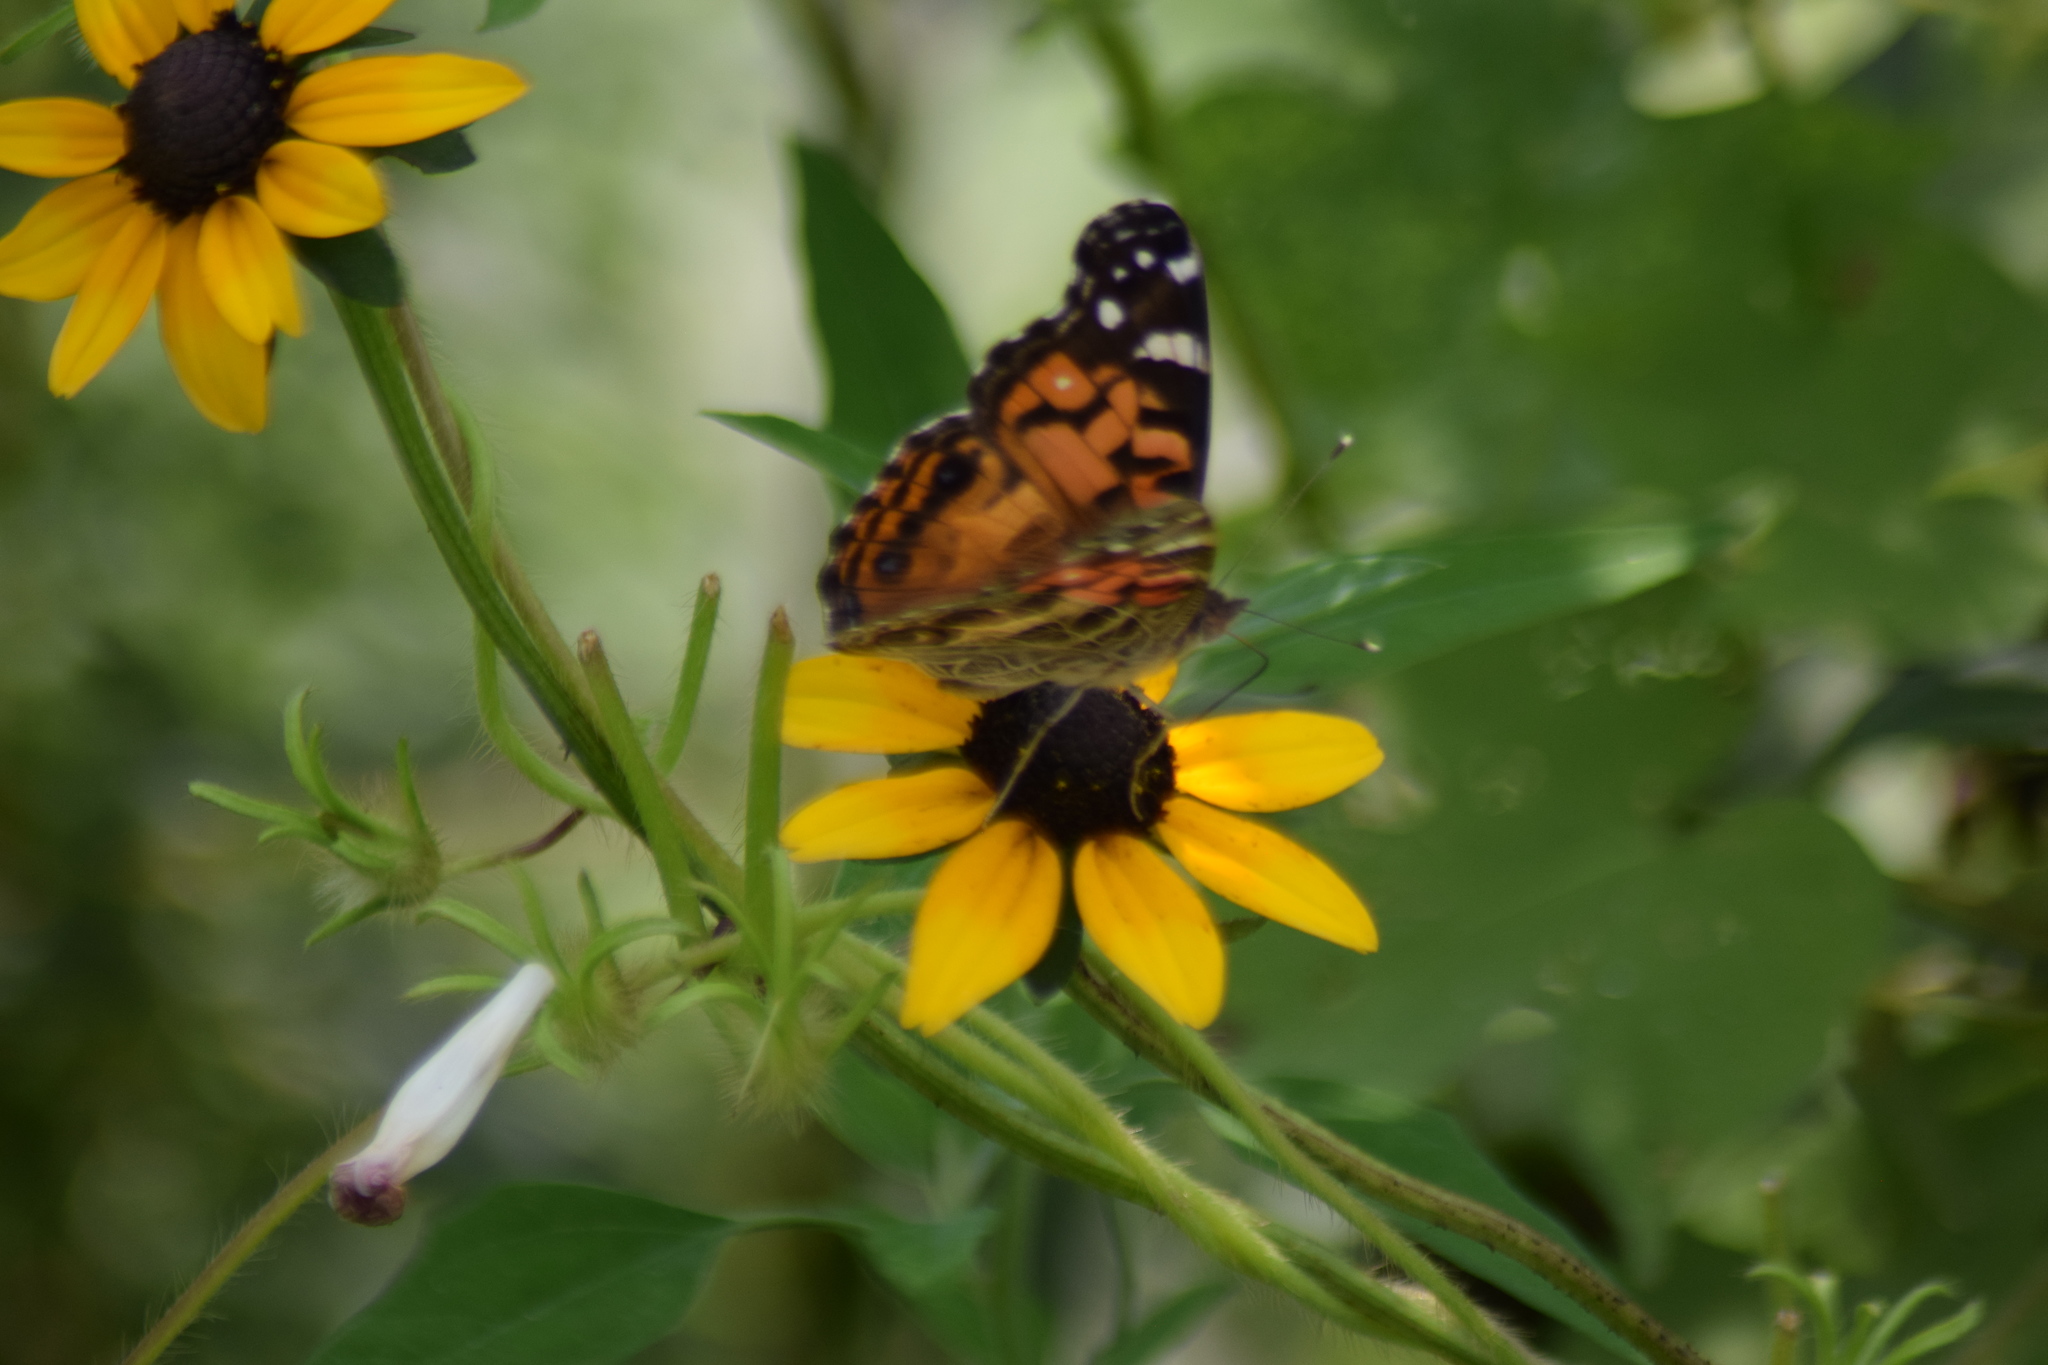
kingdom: Animalia
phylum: Arthropoda
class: Insecta
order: Lepidoptera
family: Nymphalidae
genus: Vanessa
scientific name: Vanessa virginiensis
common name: American lady
